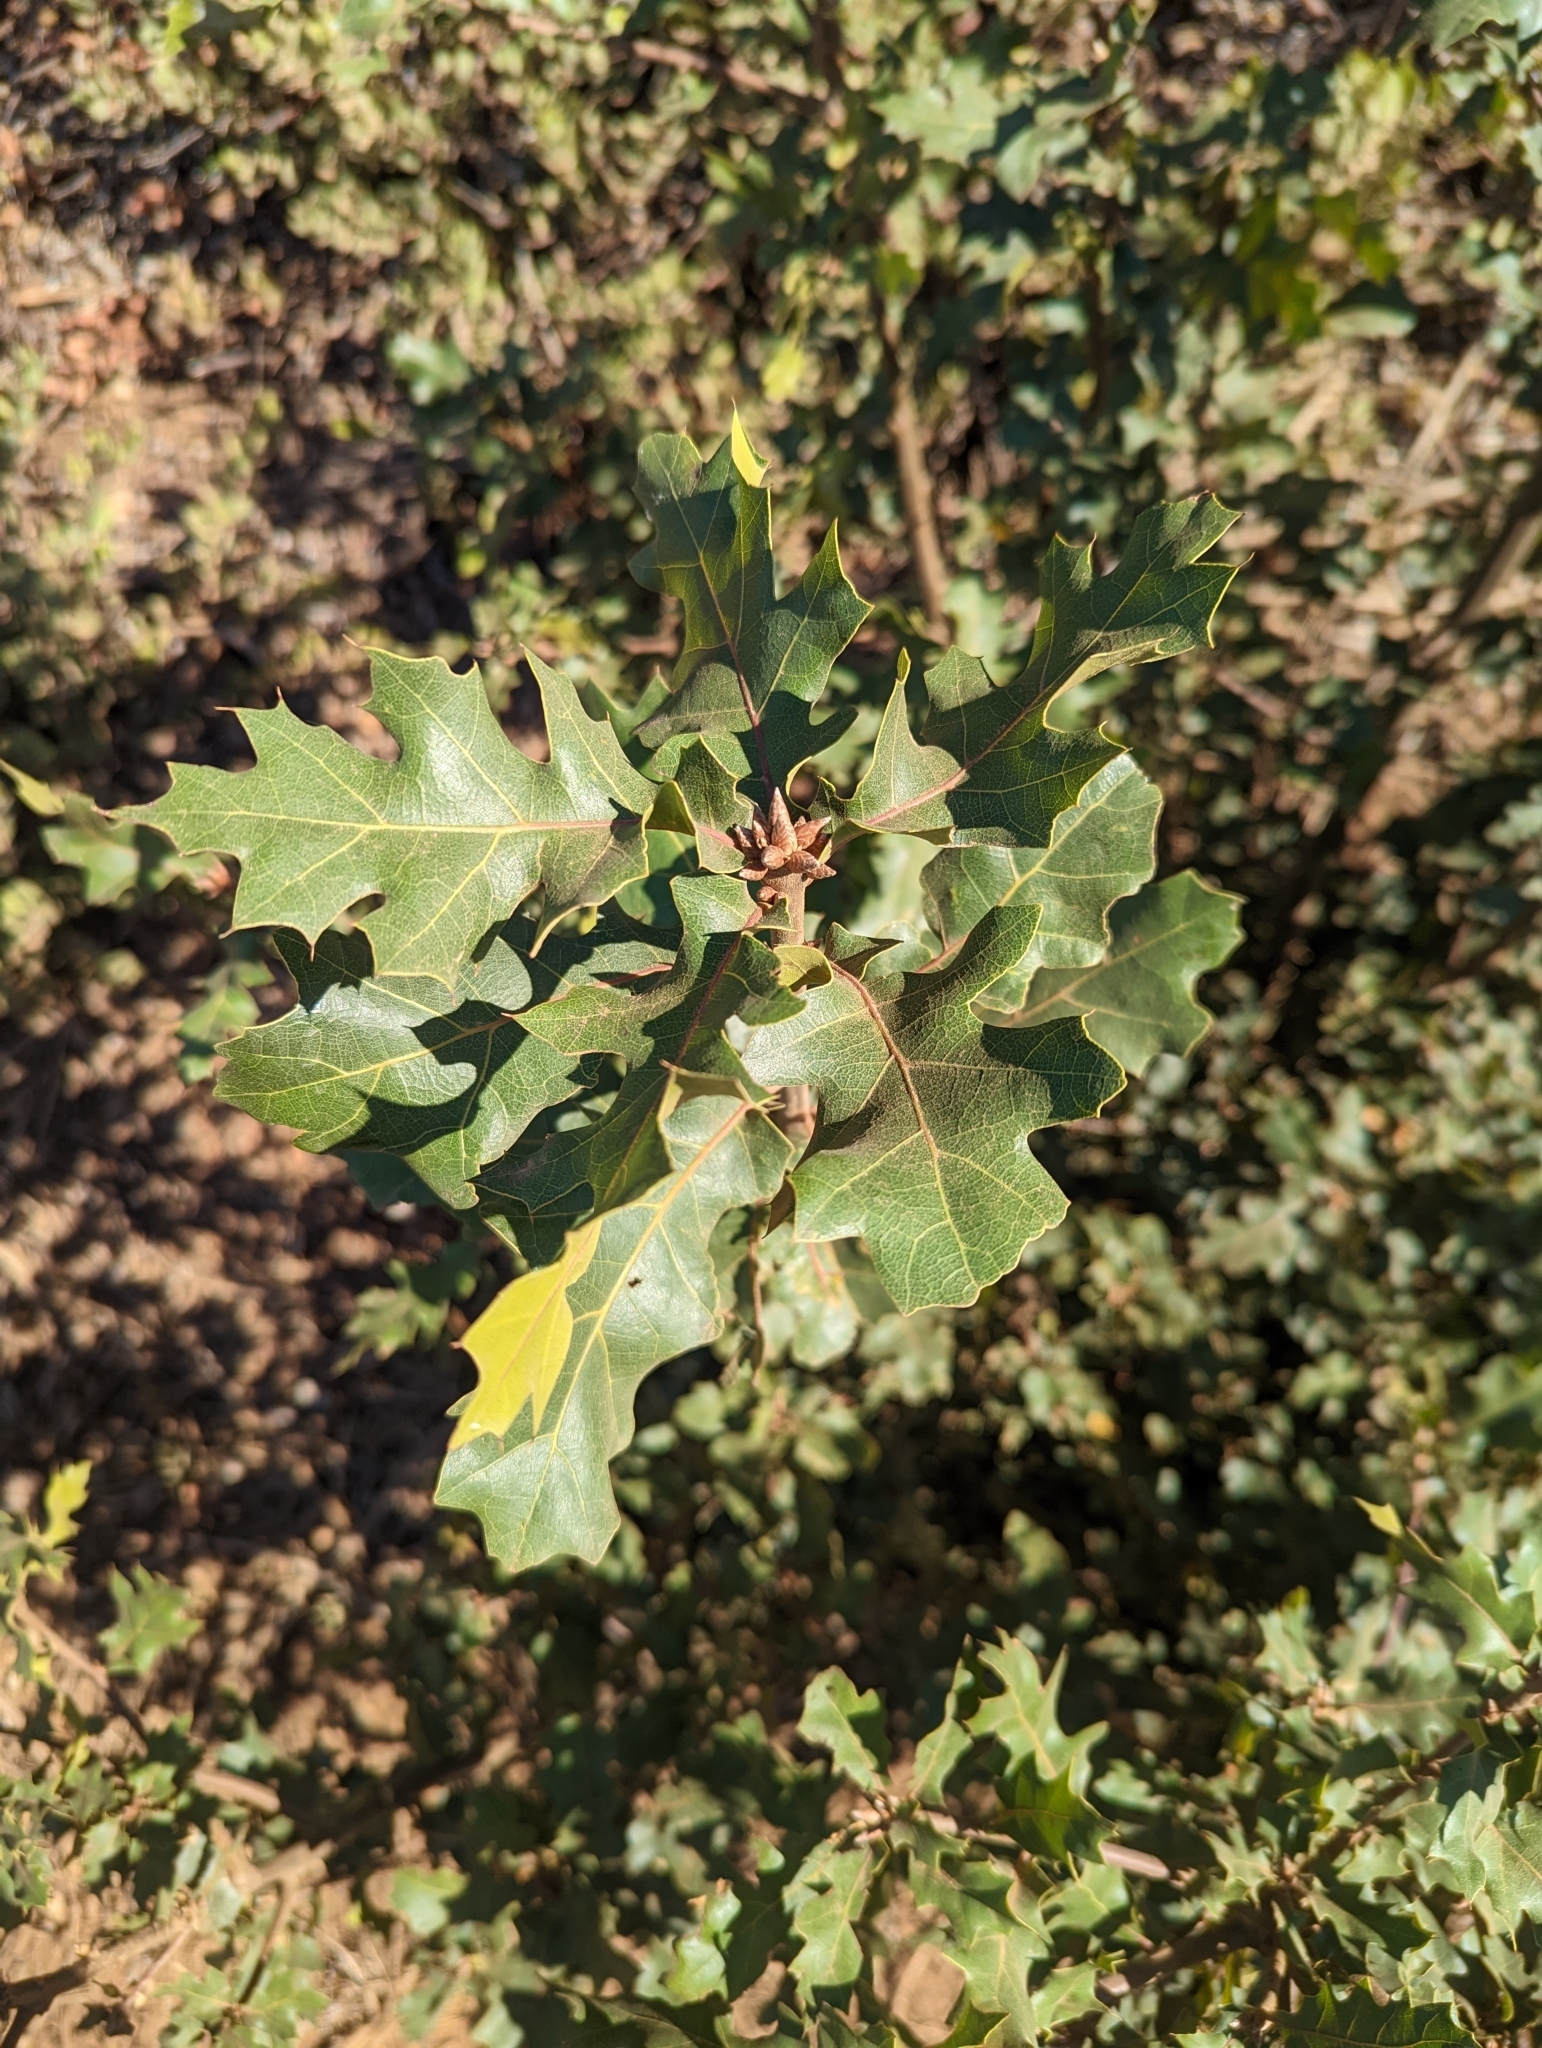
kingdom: Plantae
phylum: Tracheophyta
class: Magnoliopsida
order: Fagales
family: Fagaceae
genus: Quercus
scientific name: Quercus morehus
